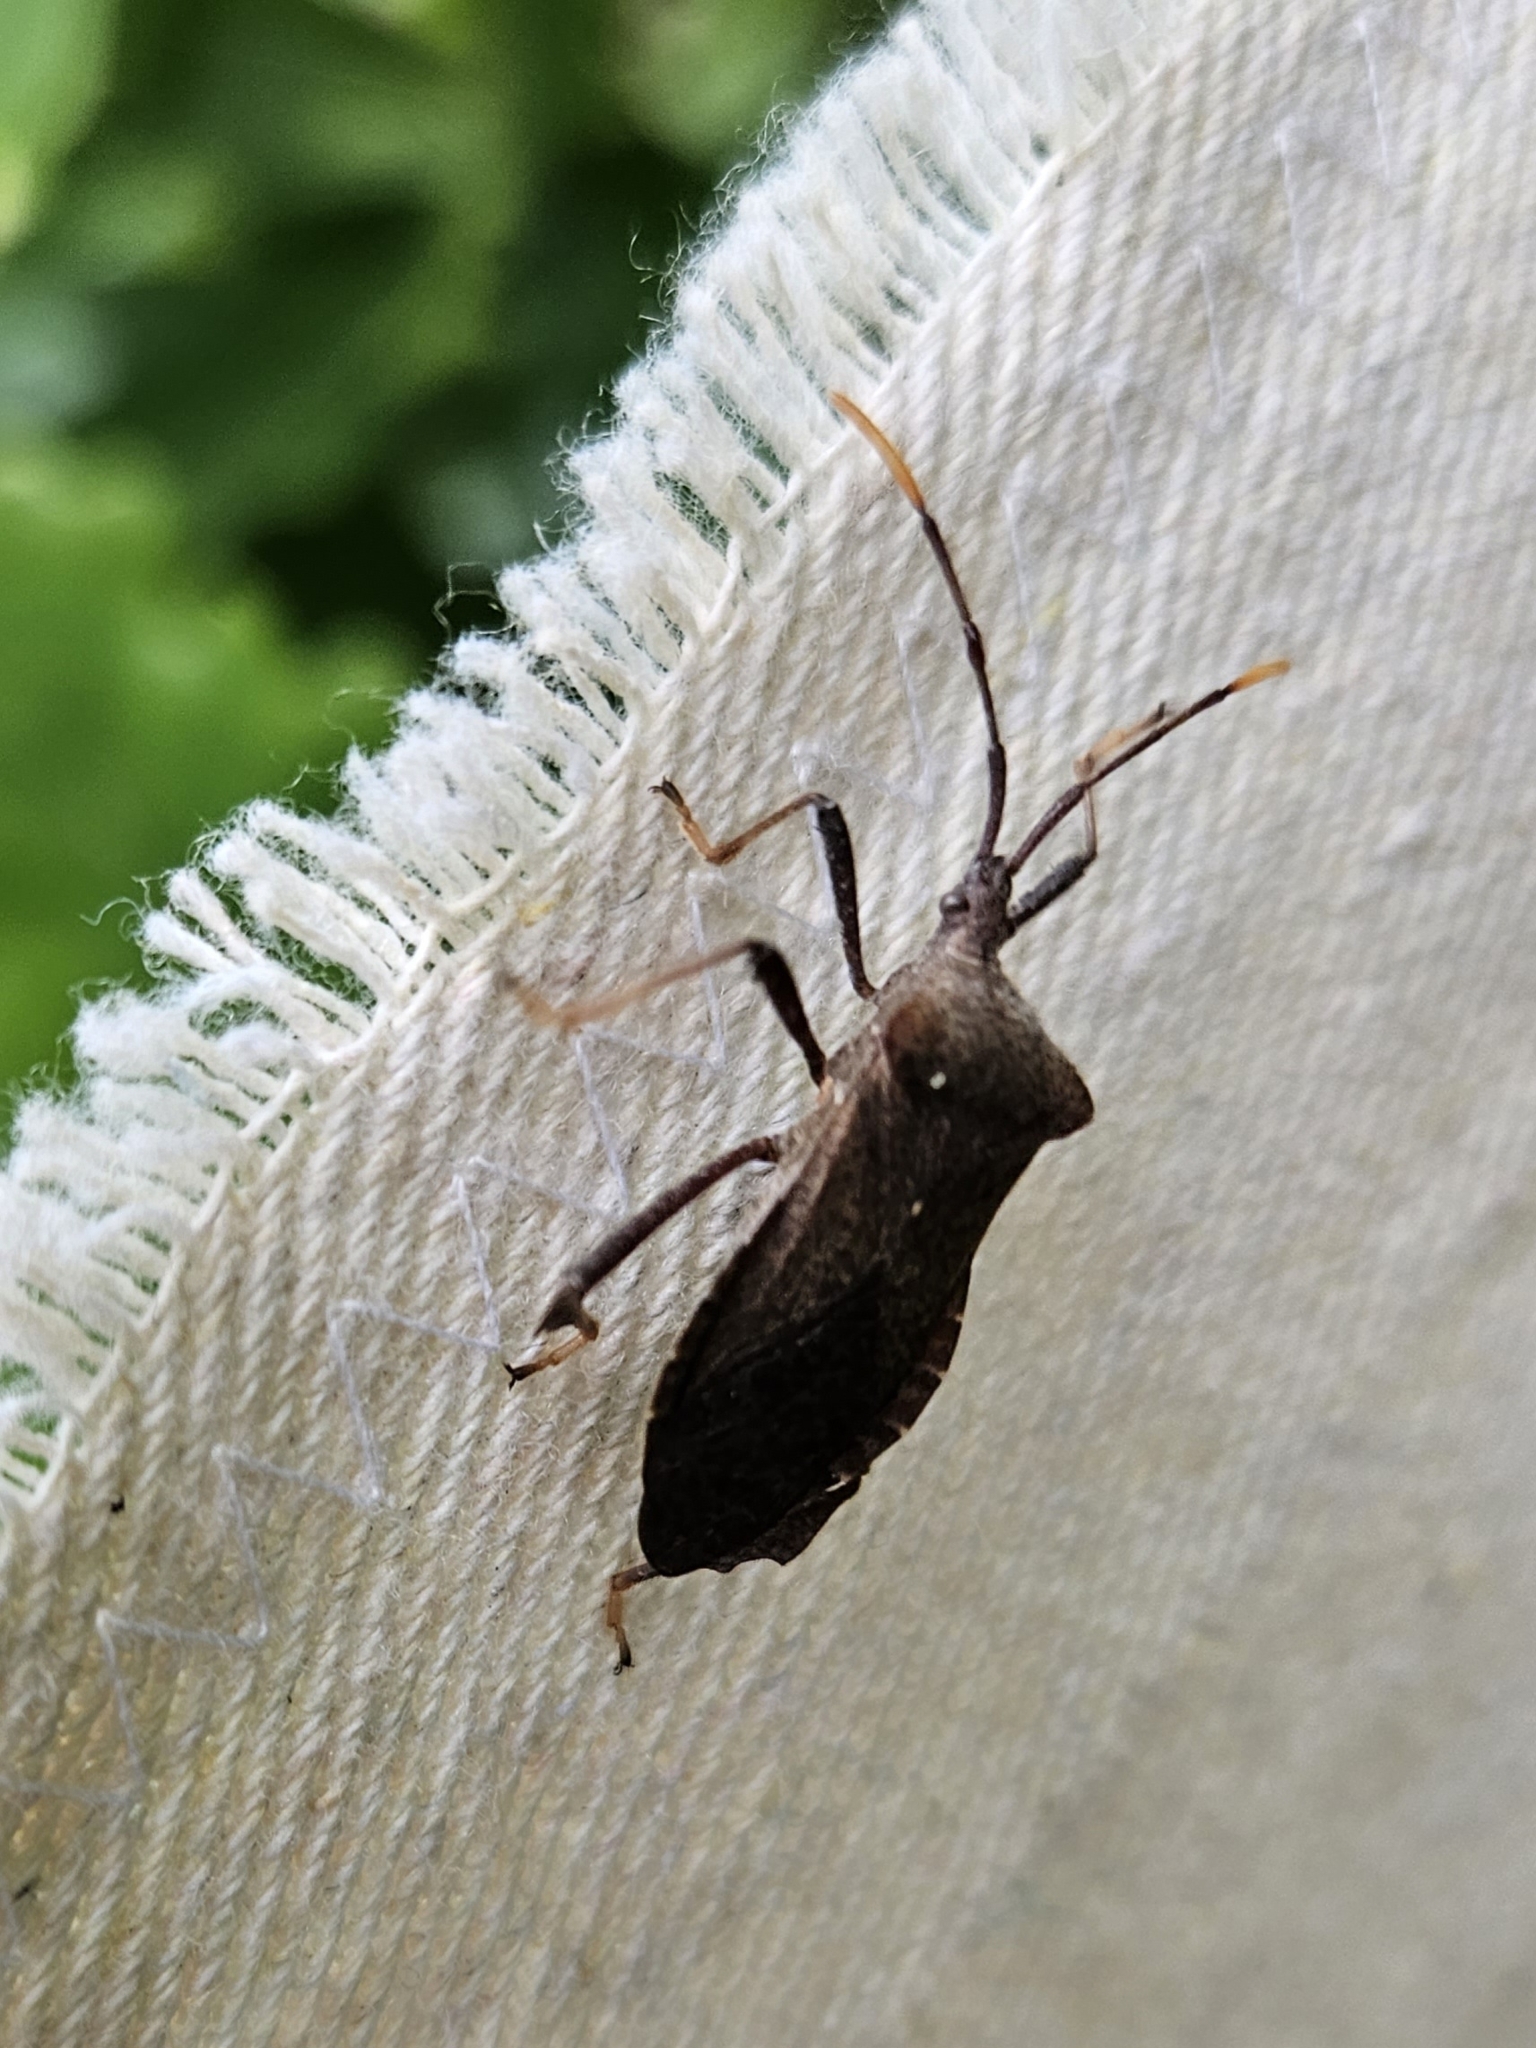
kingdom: Animalia
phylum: Arthropoda
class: Insecta
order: Hemiptera
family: Coreidae
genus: Acanthocephala
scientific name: Acanthocephala terminalis
